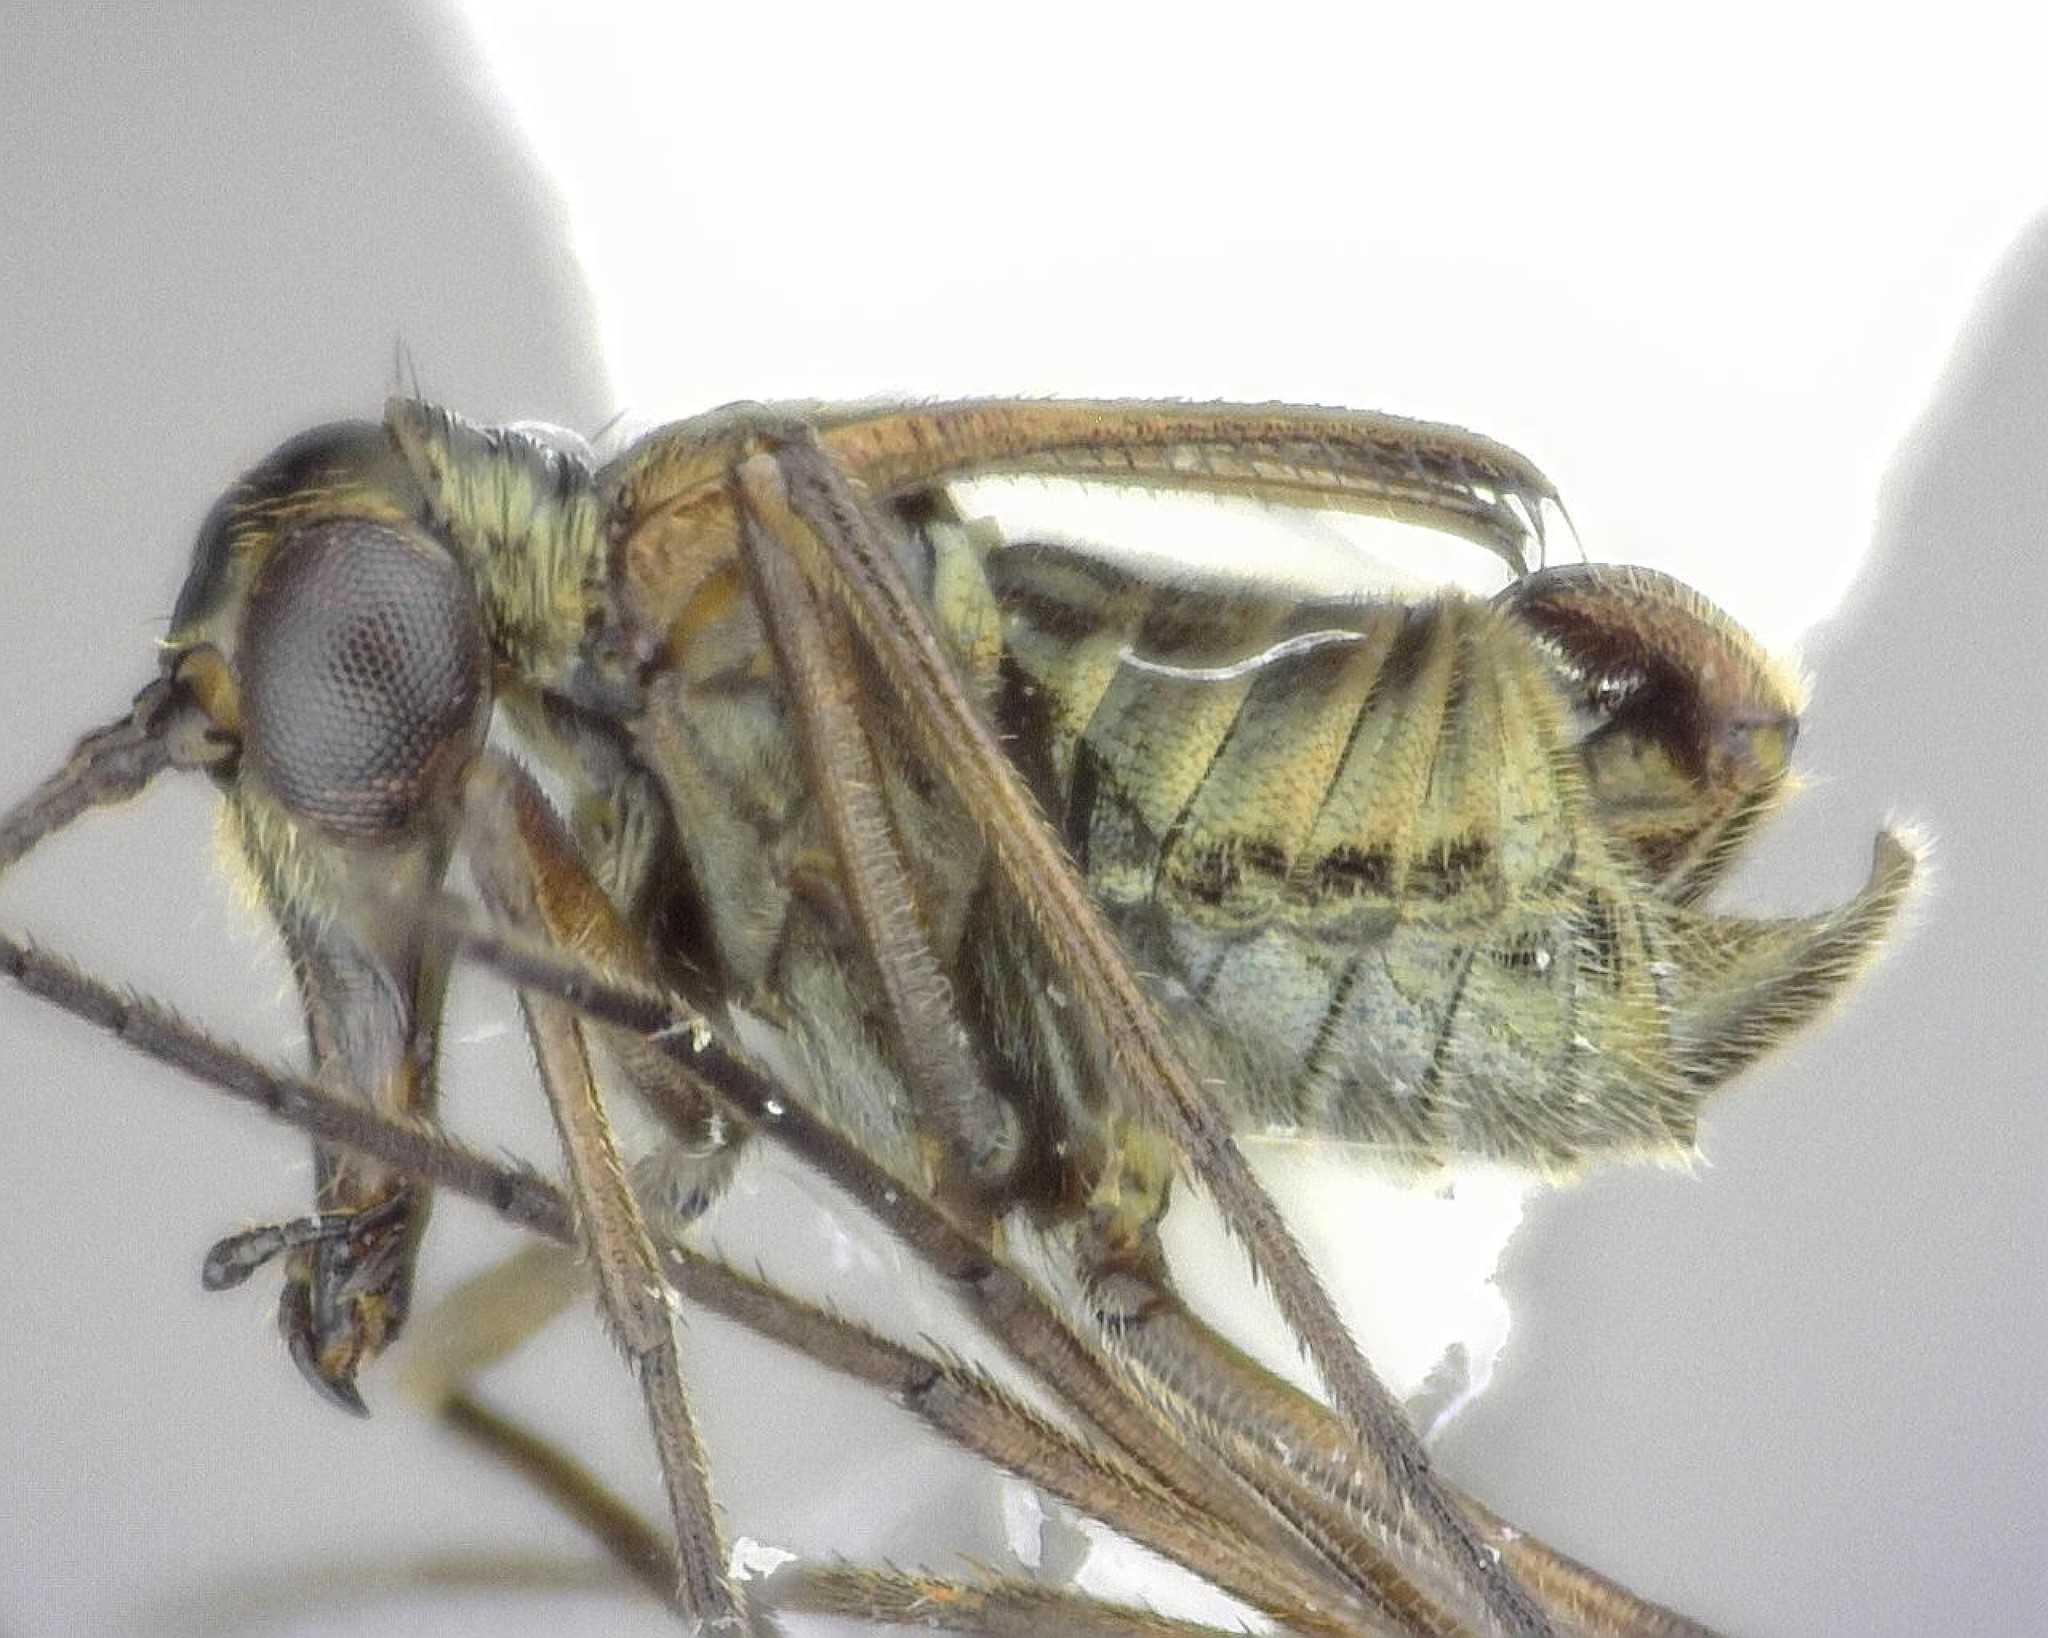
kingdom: Animalia
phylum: Arthropoda
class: Insecta
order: Mecoptera
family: Boreidae
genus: Boreus
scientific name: Boreus brumalis
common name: Mid-winter boreus
